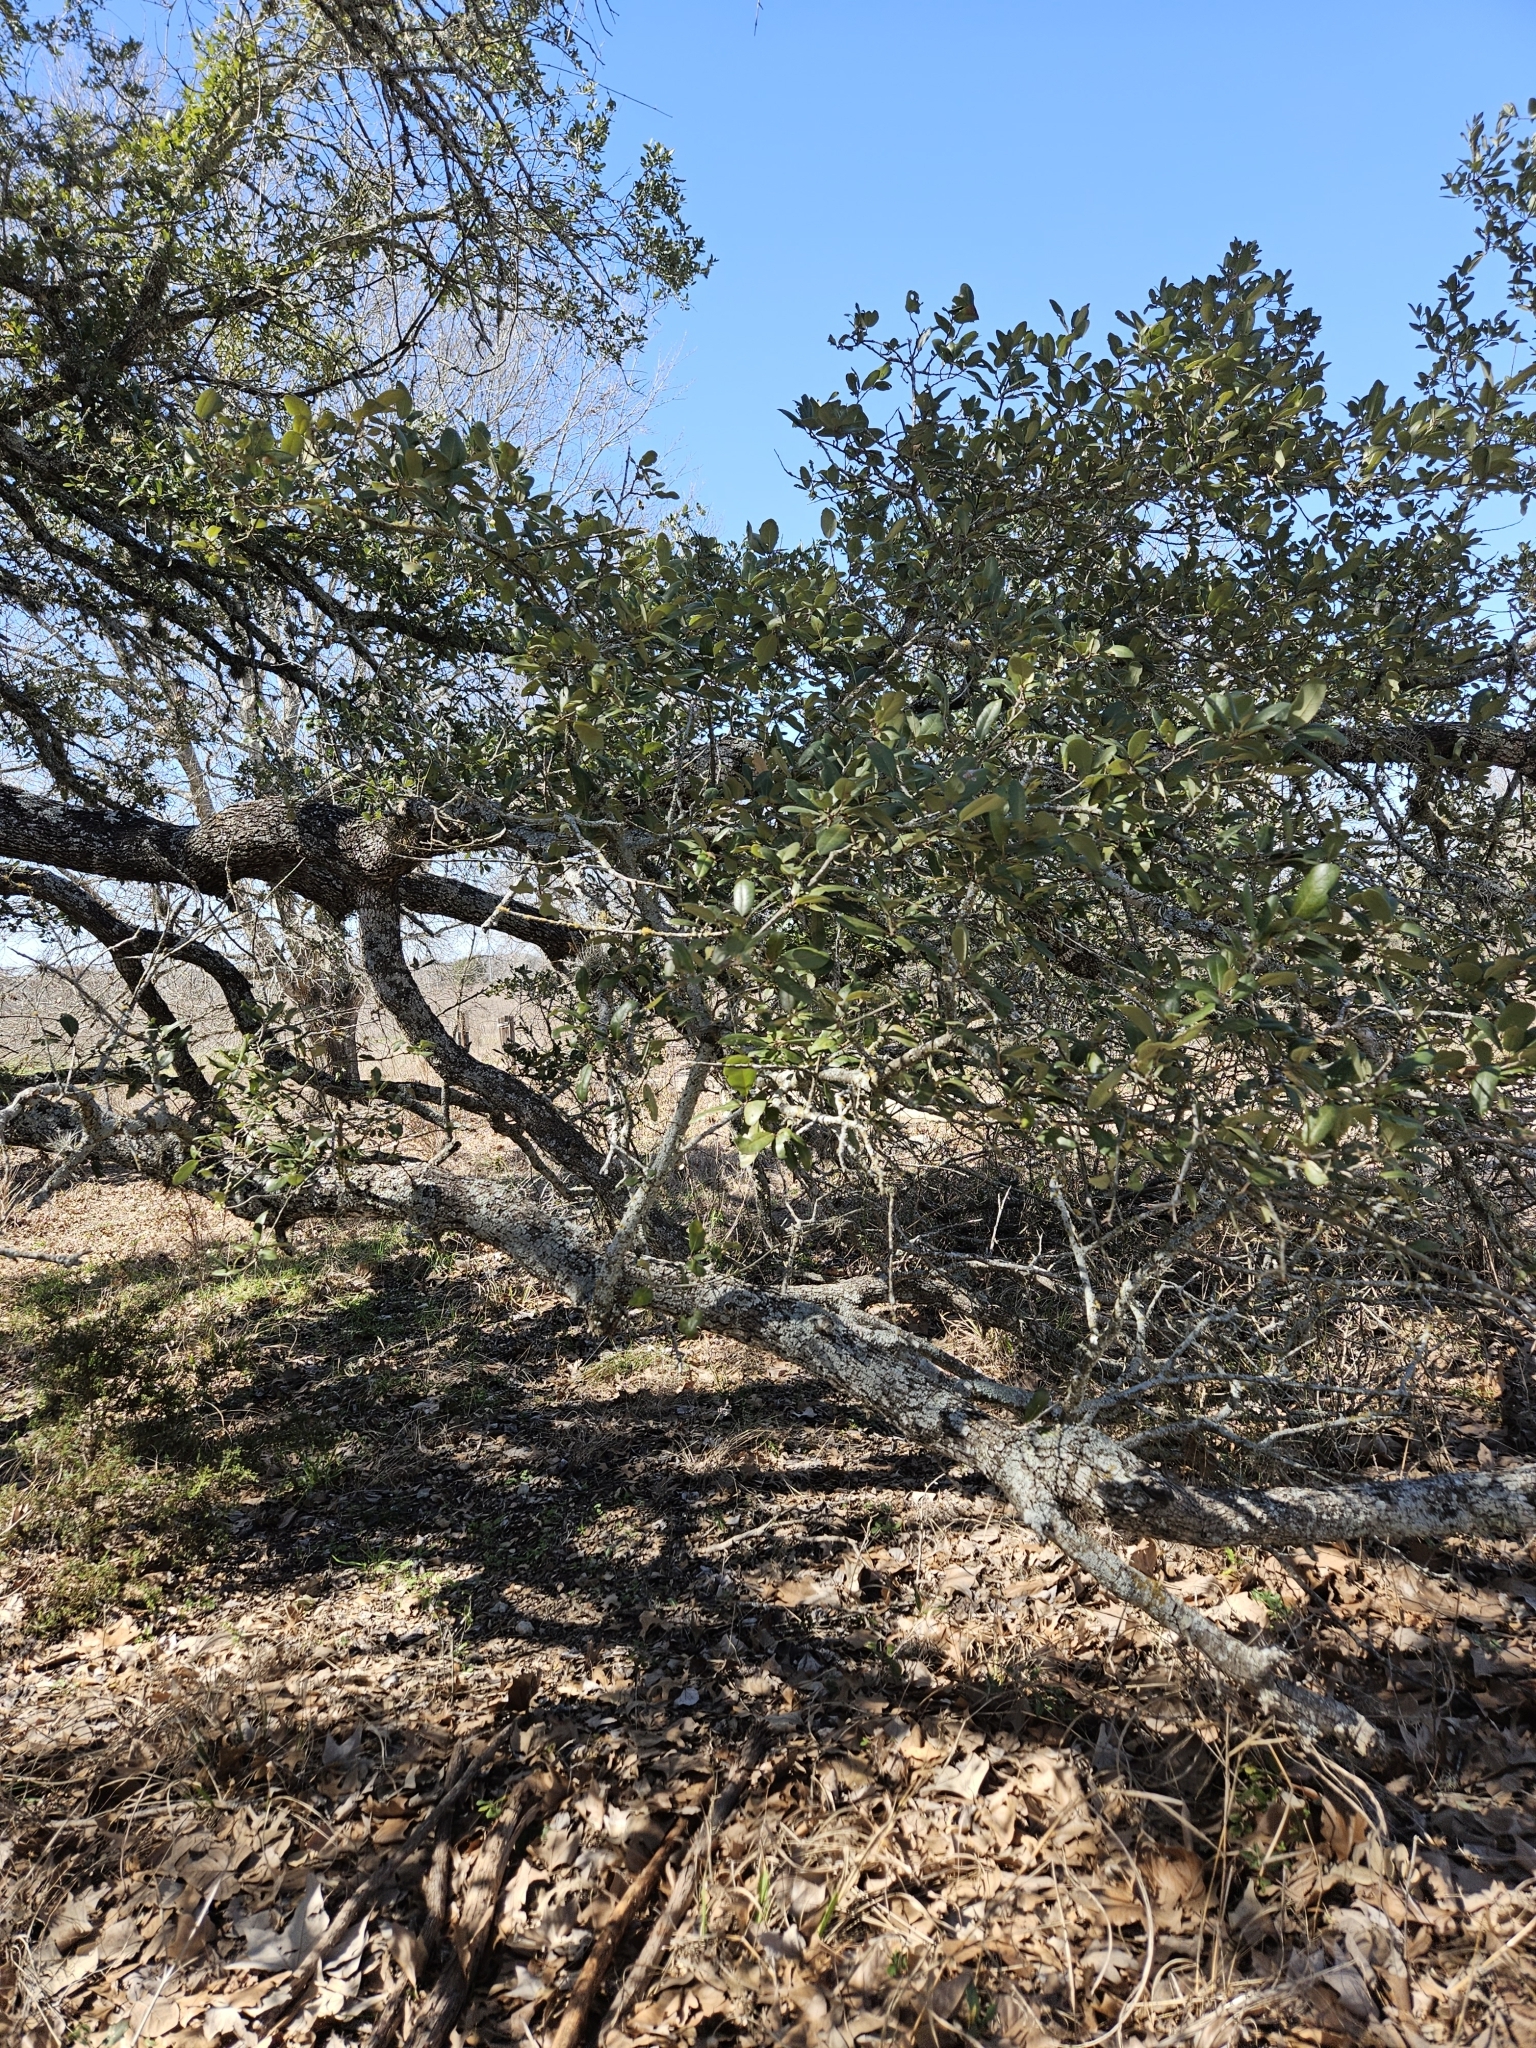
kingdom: Plantae
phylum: Tracheophyta
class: Magnoliopsida
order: Fagales
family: Fagaceae
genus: Quercus
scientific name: Quercus fusiformis
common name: Texas live oak
